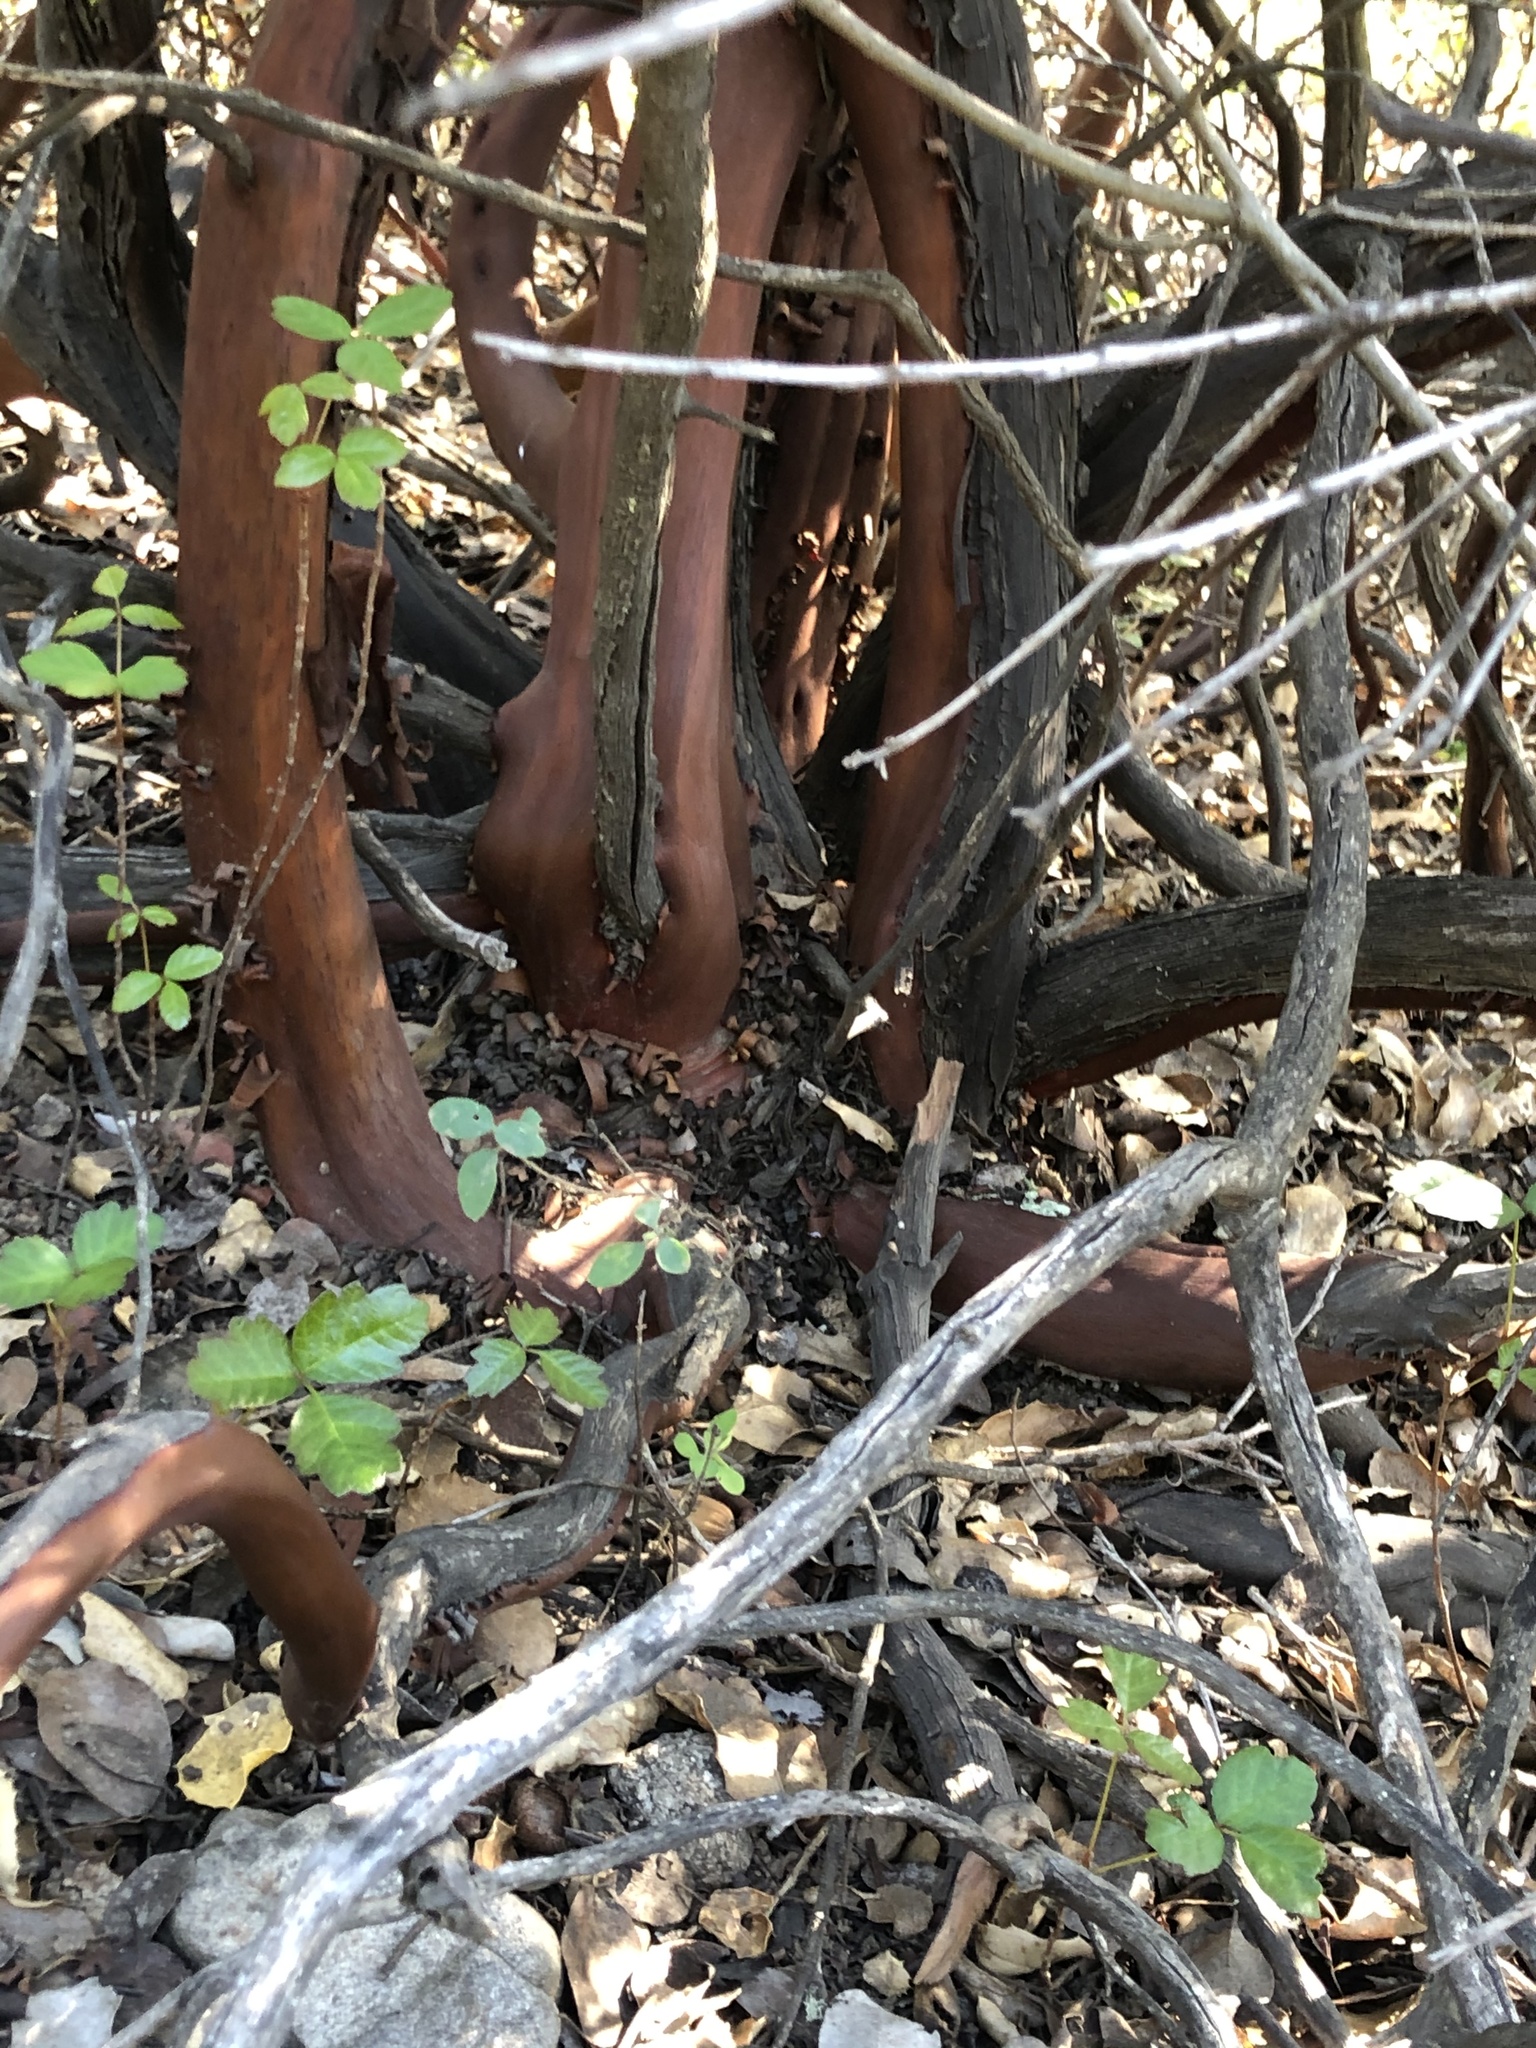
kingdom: Plantae
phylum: Tracheophyta
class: Magnoliopsida
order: Ericales
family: Ericaceae
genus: Arctostaphylos
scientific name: Arctostaphylos glandulosa
